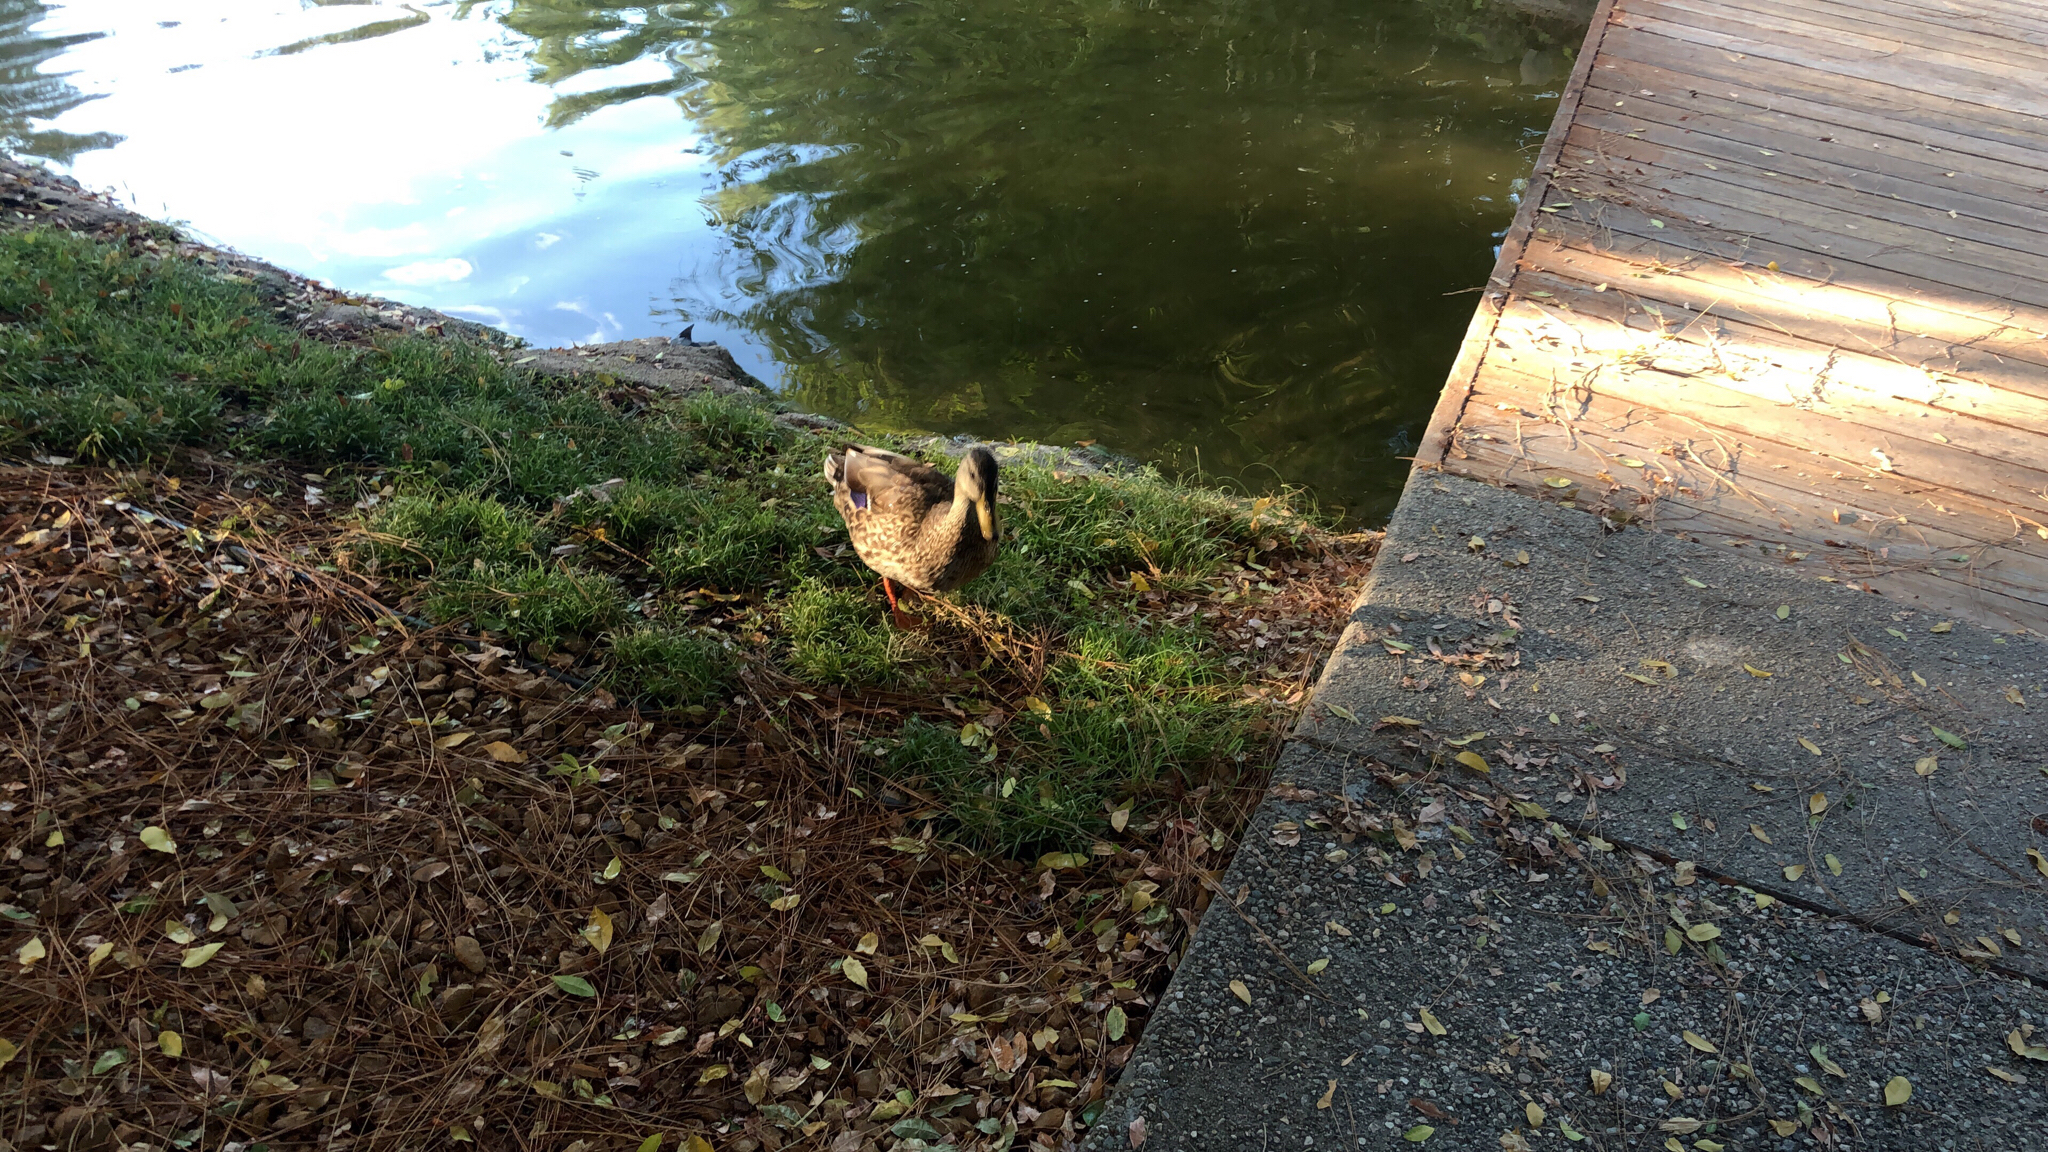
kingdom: Animalia
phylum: Chordata
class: Aves
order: Anseriformes
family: Anatidae
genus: Anas
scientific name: Anas platyrhynchos
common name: Mallard
